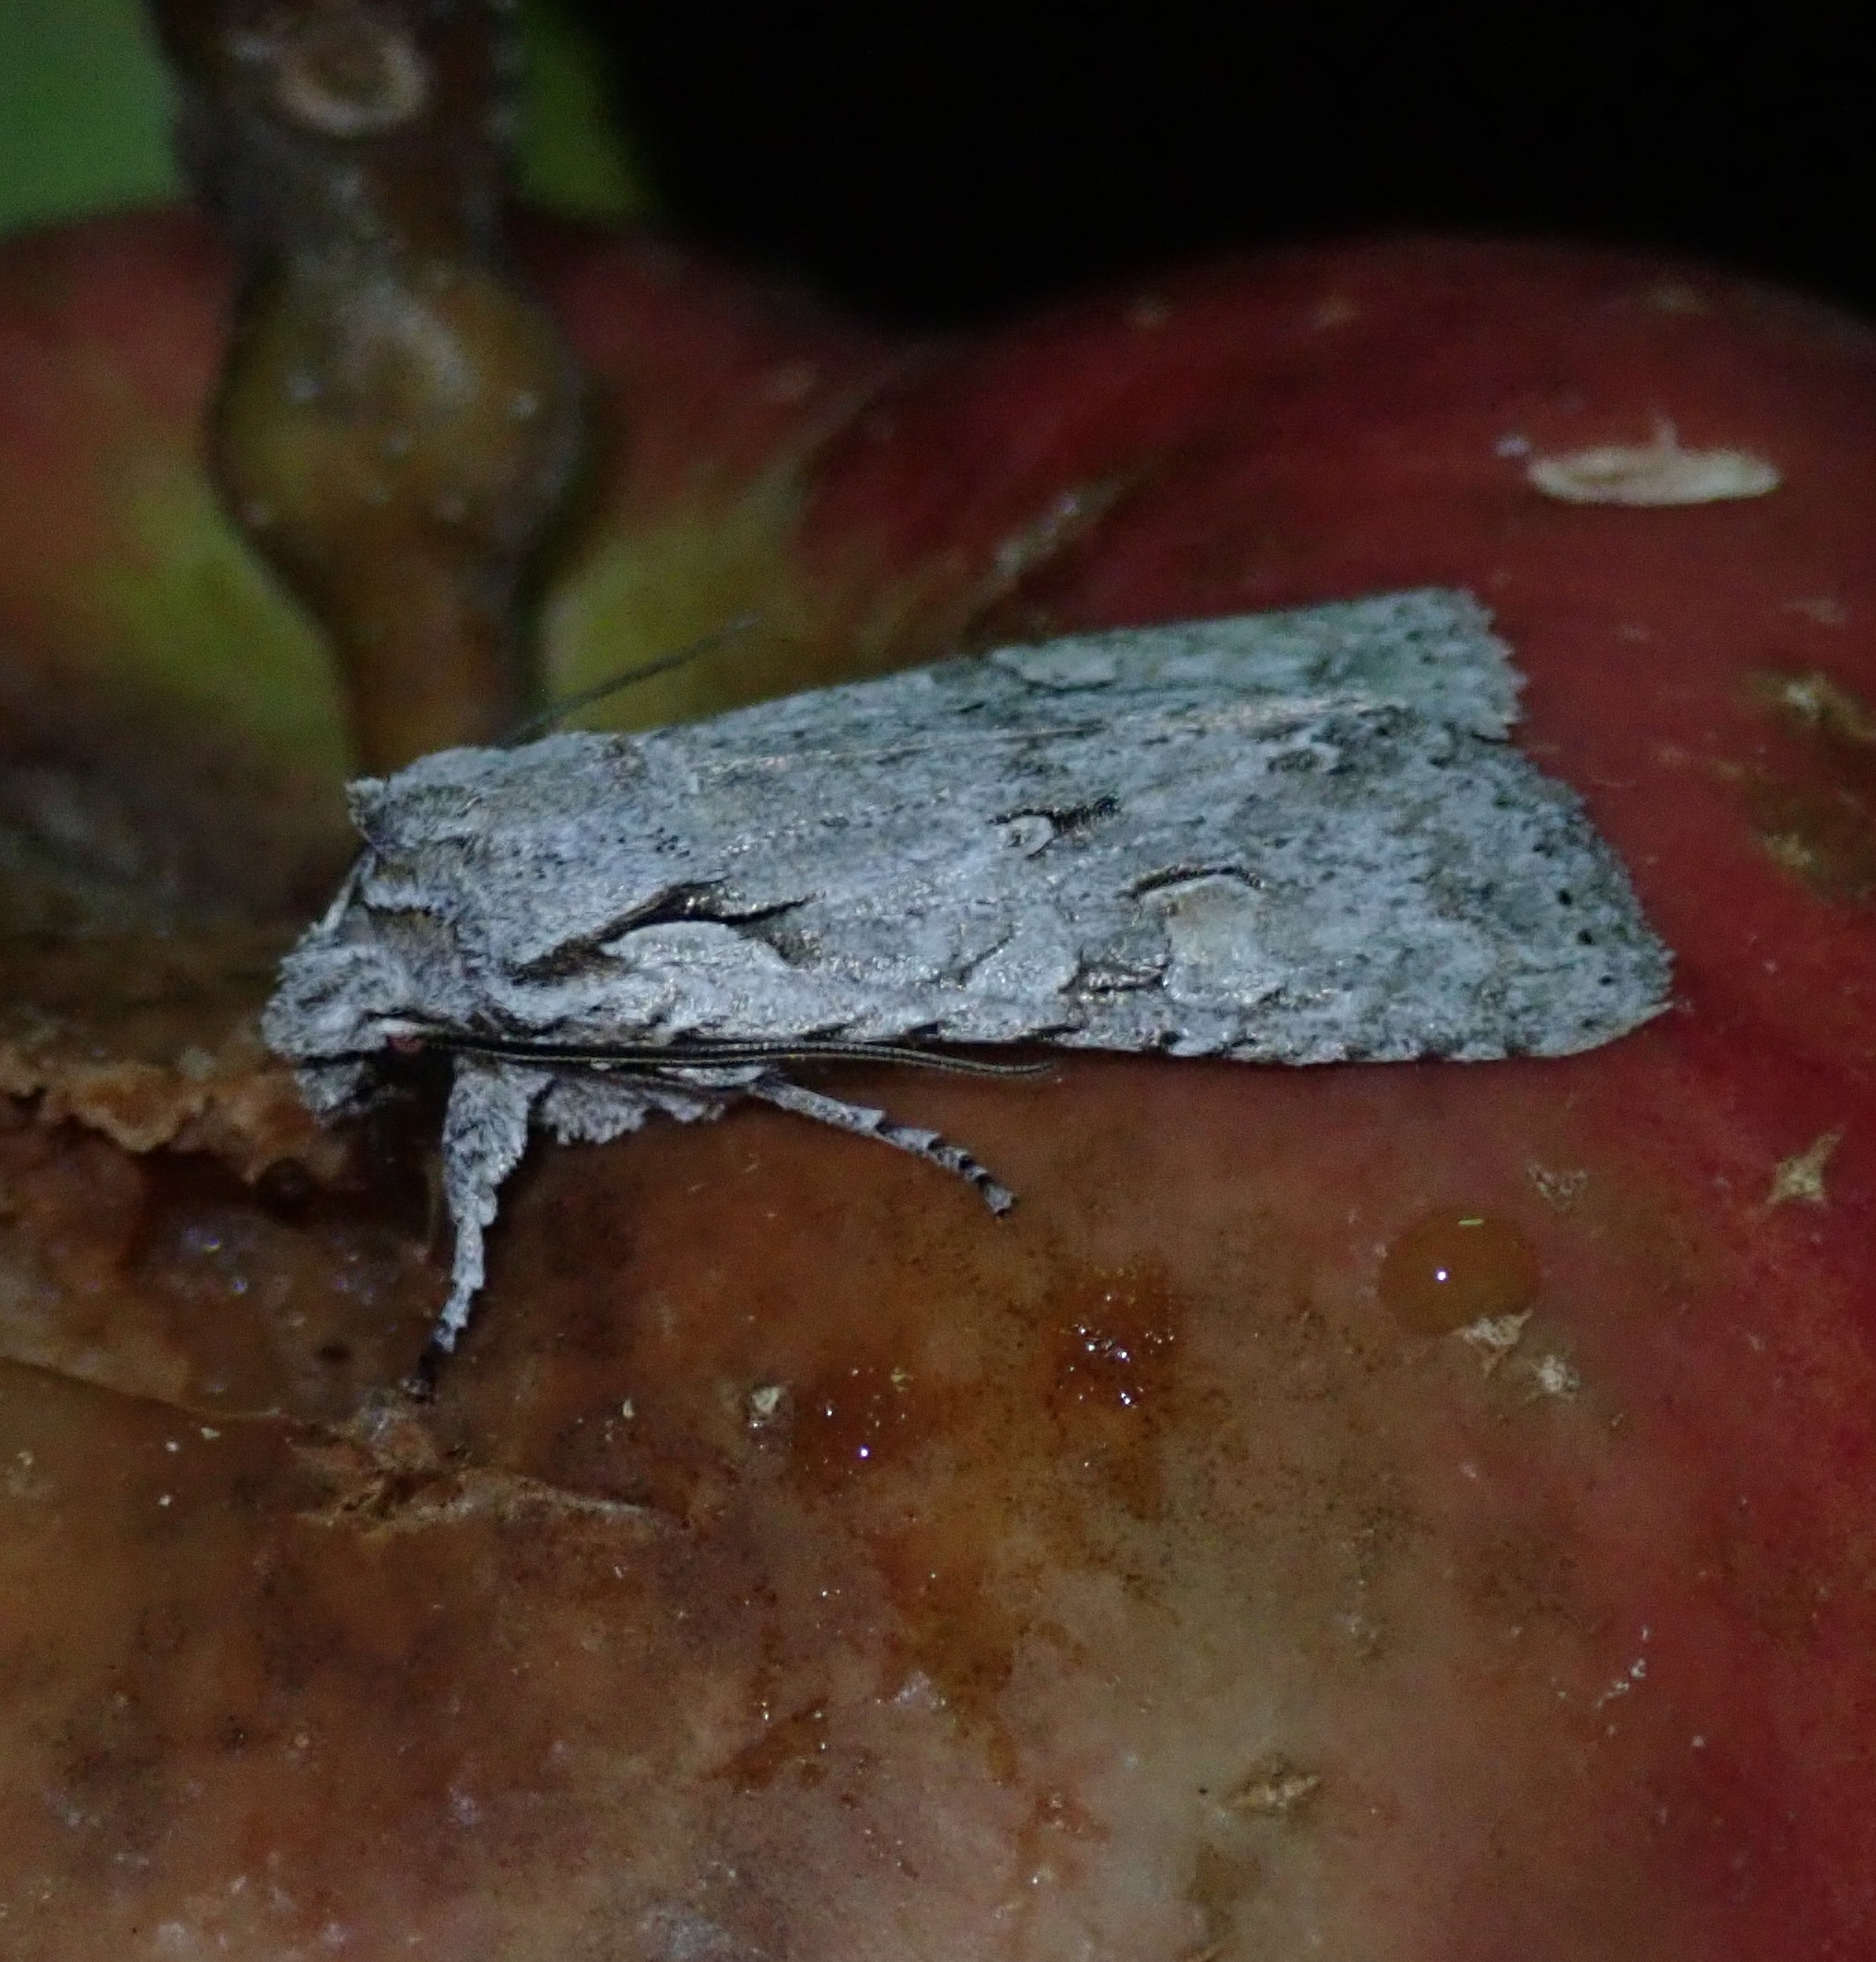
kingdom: Animalia
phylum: Arthropoda
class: Insecta
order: Lepidoptera
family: Noctuidae
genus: Lithophane
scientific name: Lithophane ornitopus
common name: Grey shoulder-knot
